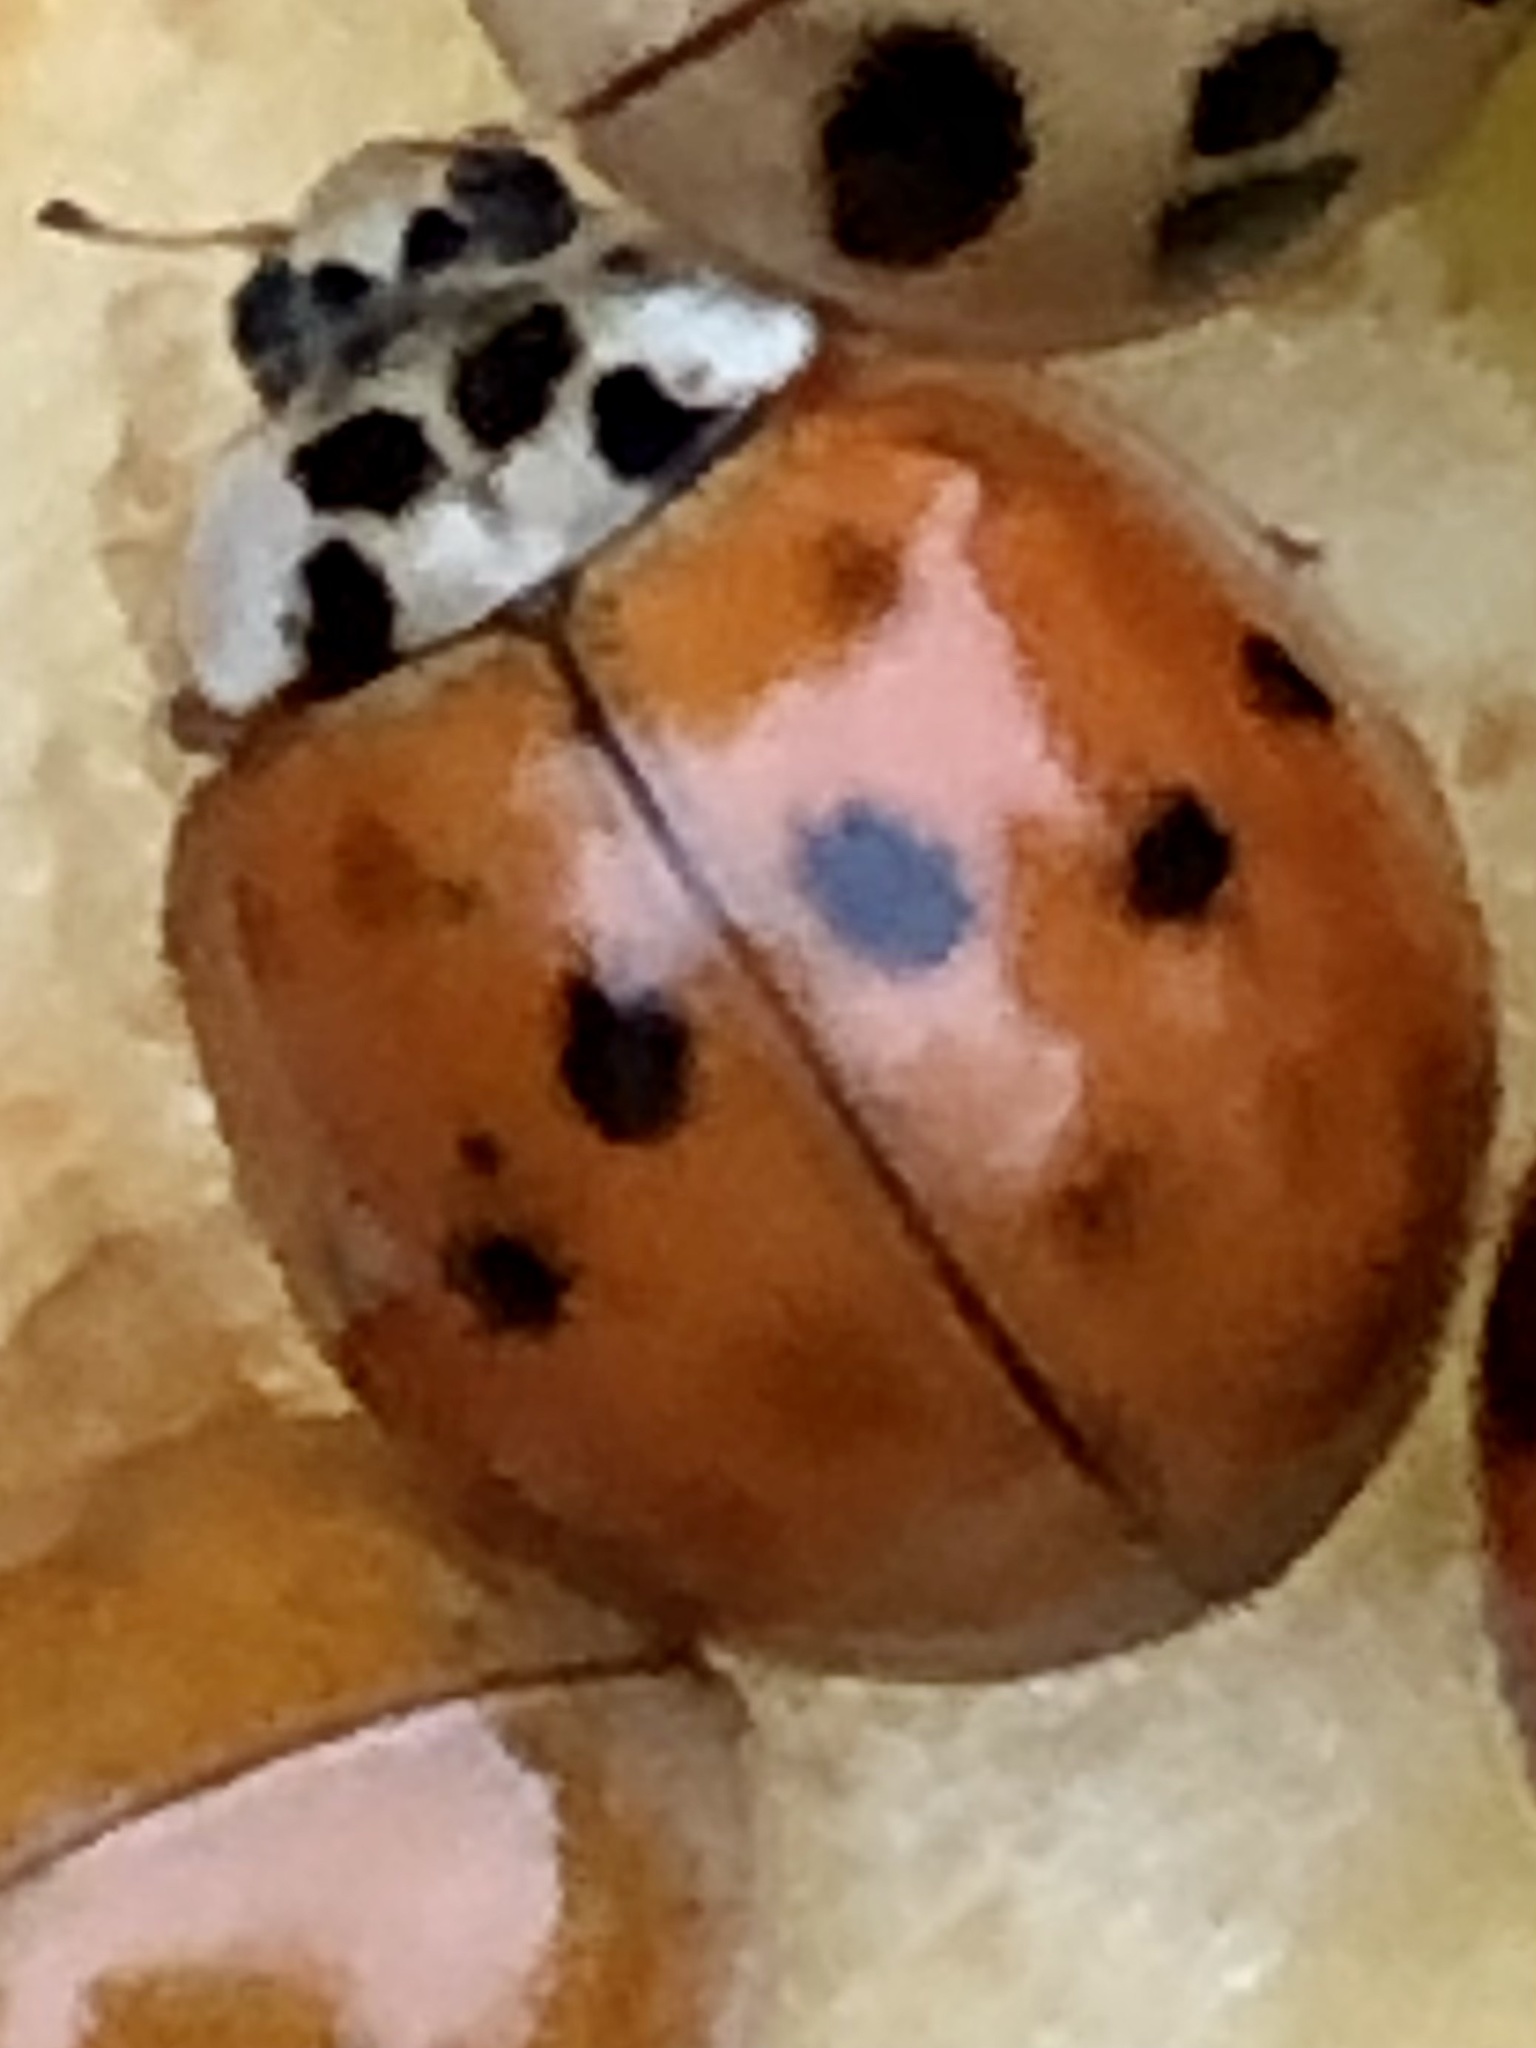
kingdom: Animalia
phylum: Arthropoda
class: Insecta
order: Coleoptera
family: Coccinellidae
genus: Harmonia
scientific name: Harmonia axyridis
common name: Harlequin ladybird
